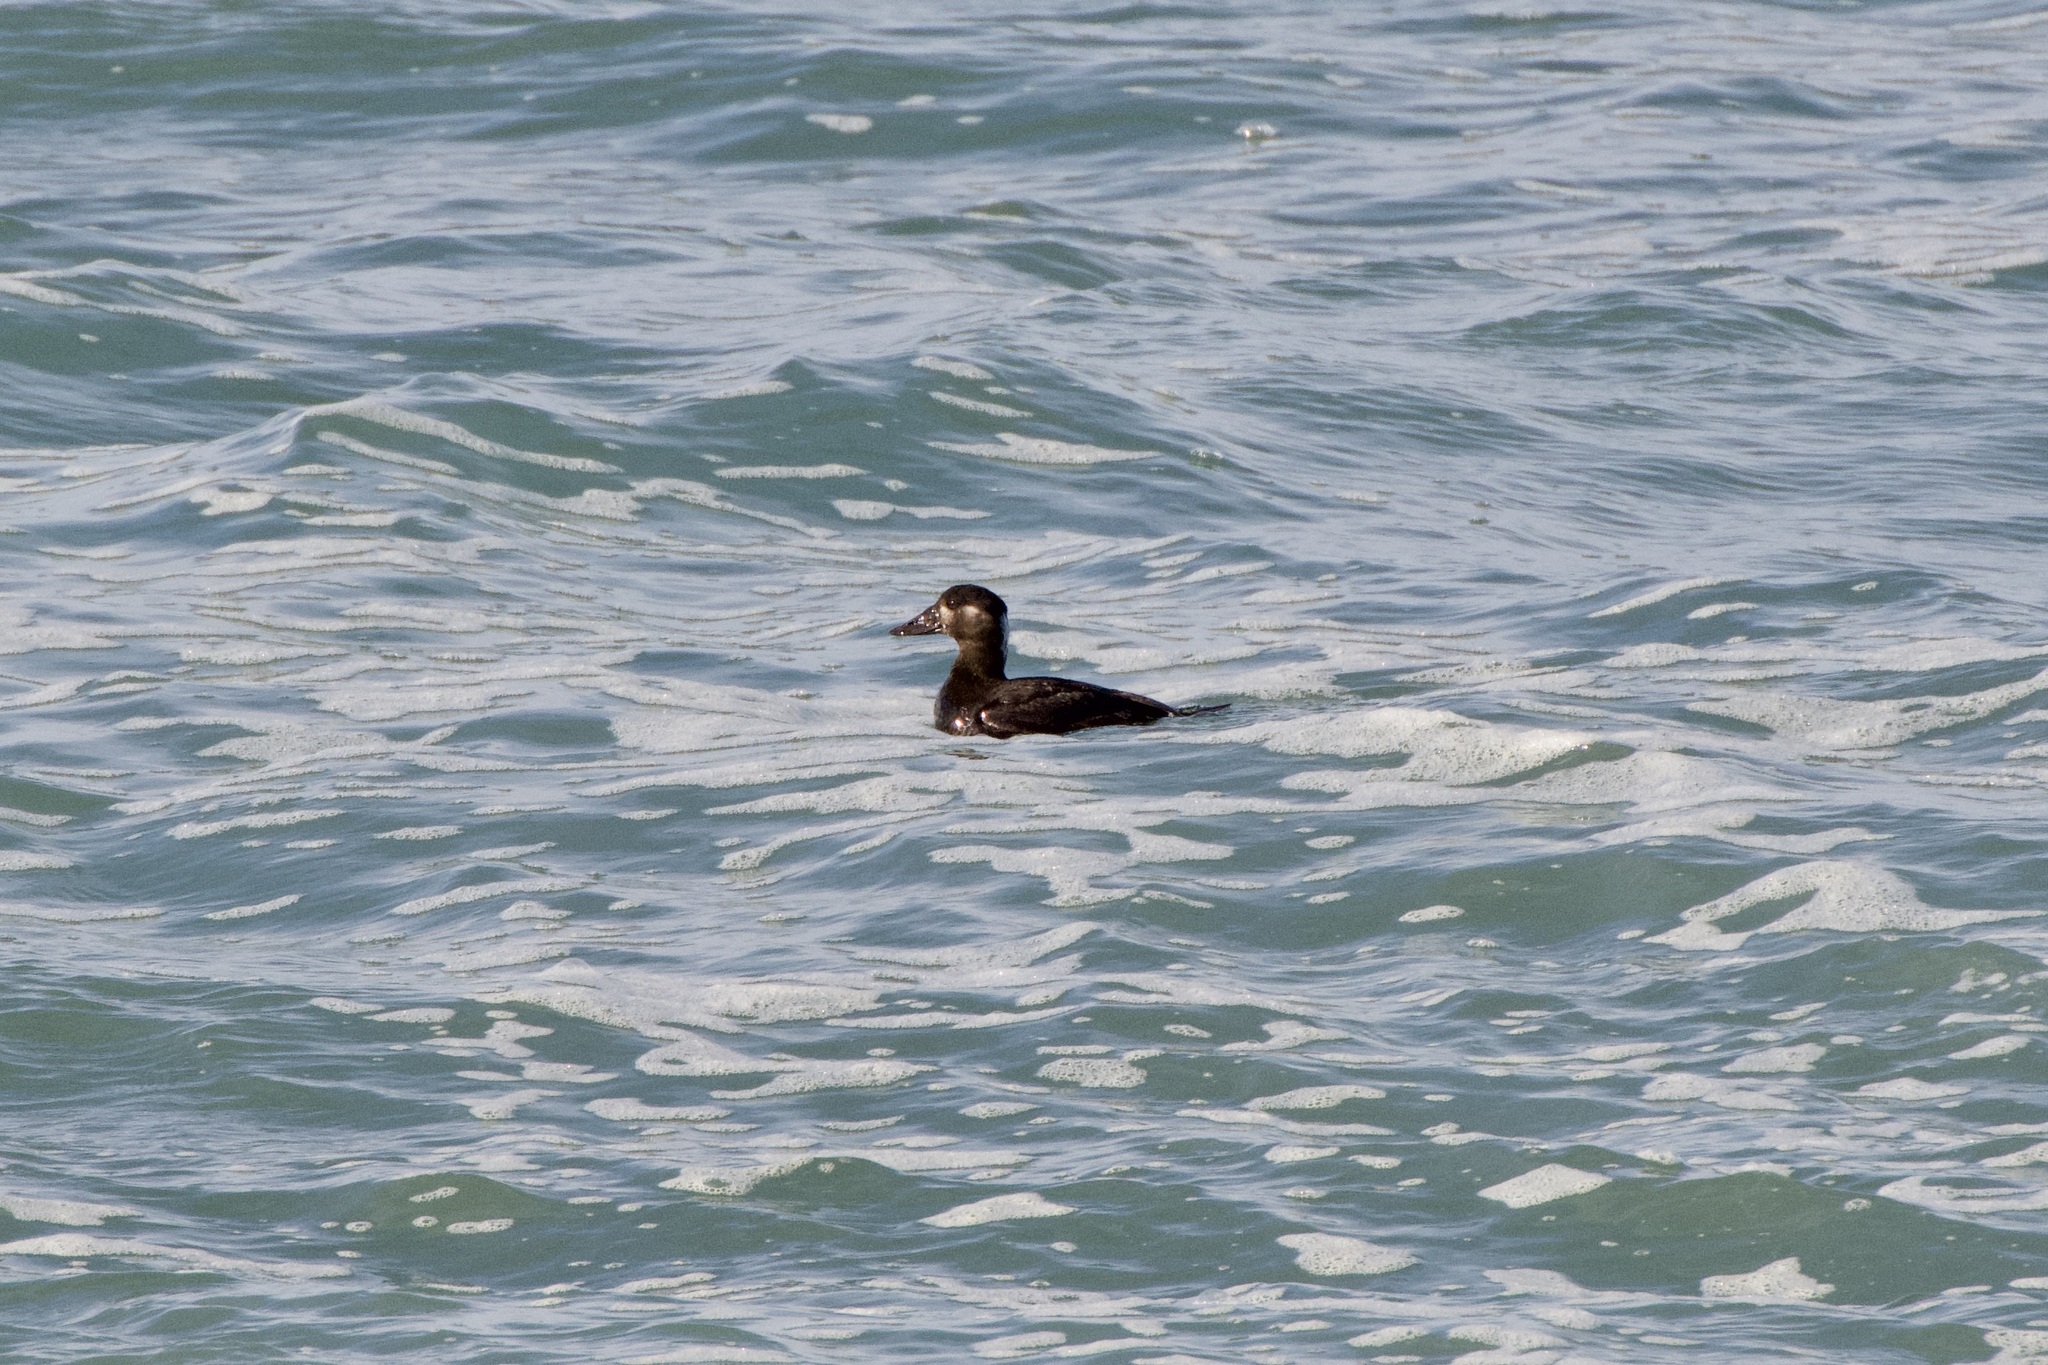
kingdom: Animalia
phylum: Chordata
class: Aves
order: Anseriformes
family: Anatidae
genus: Melanitta
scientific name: Melanitta perspicillata
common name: Surf scoter
